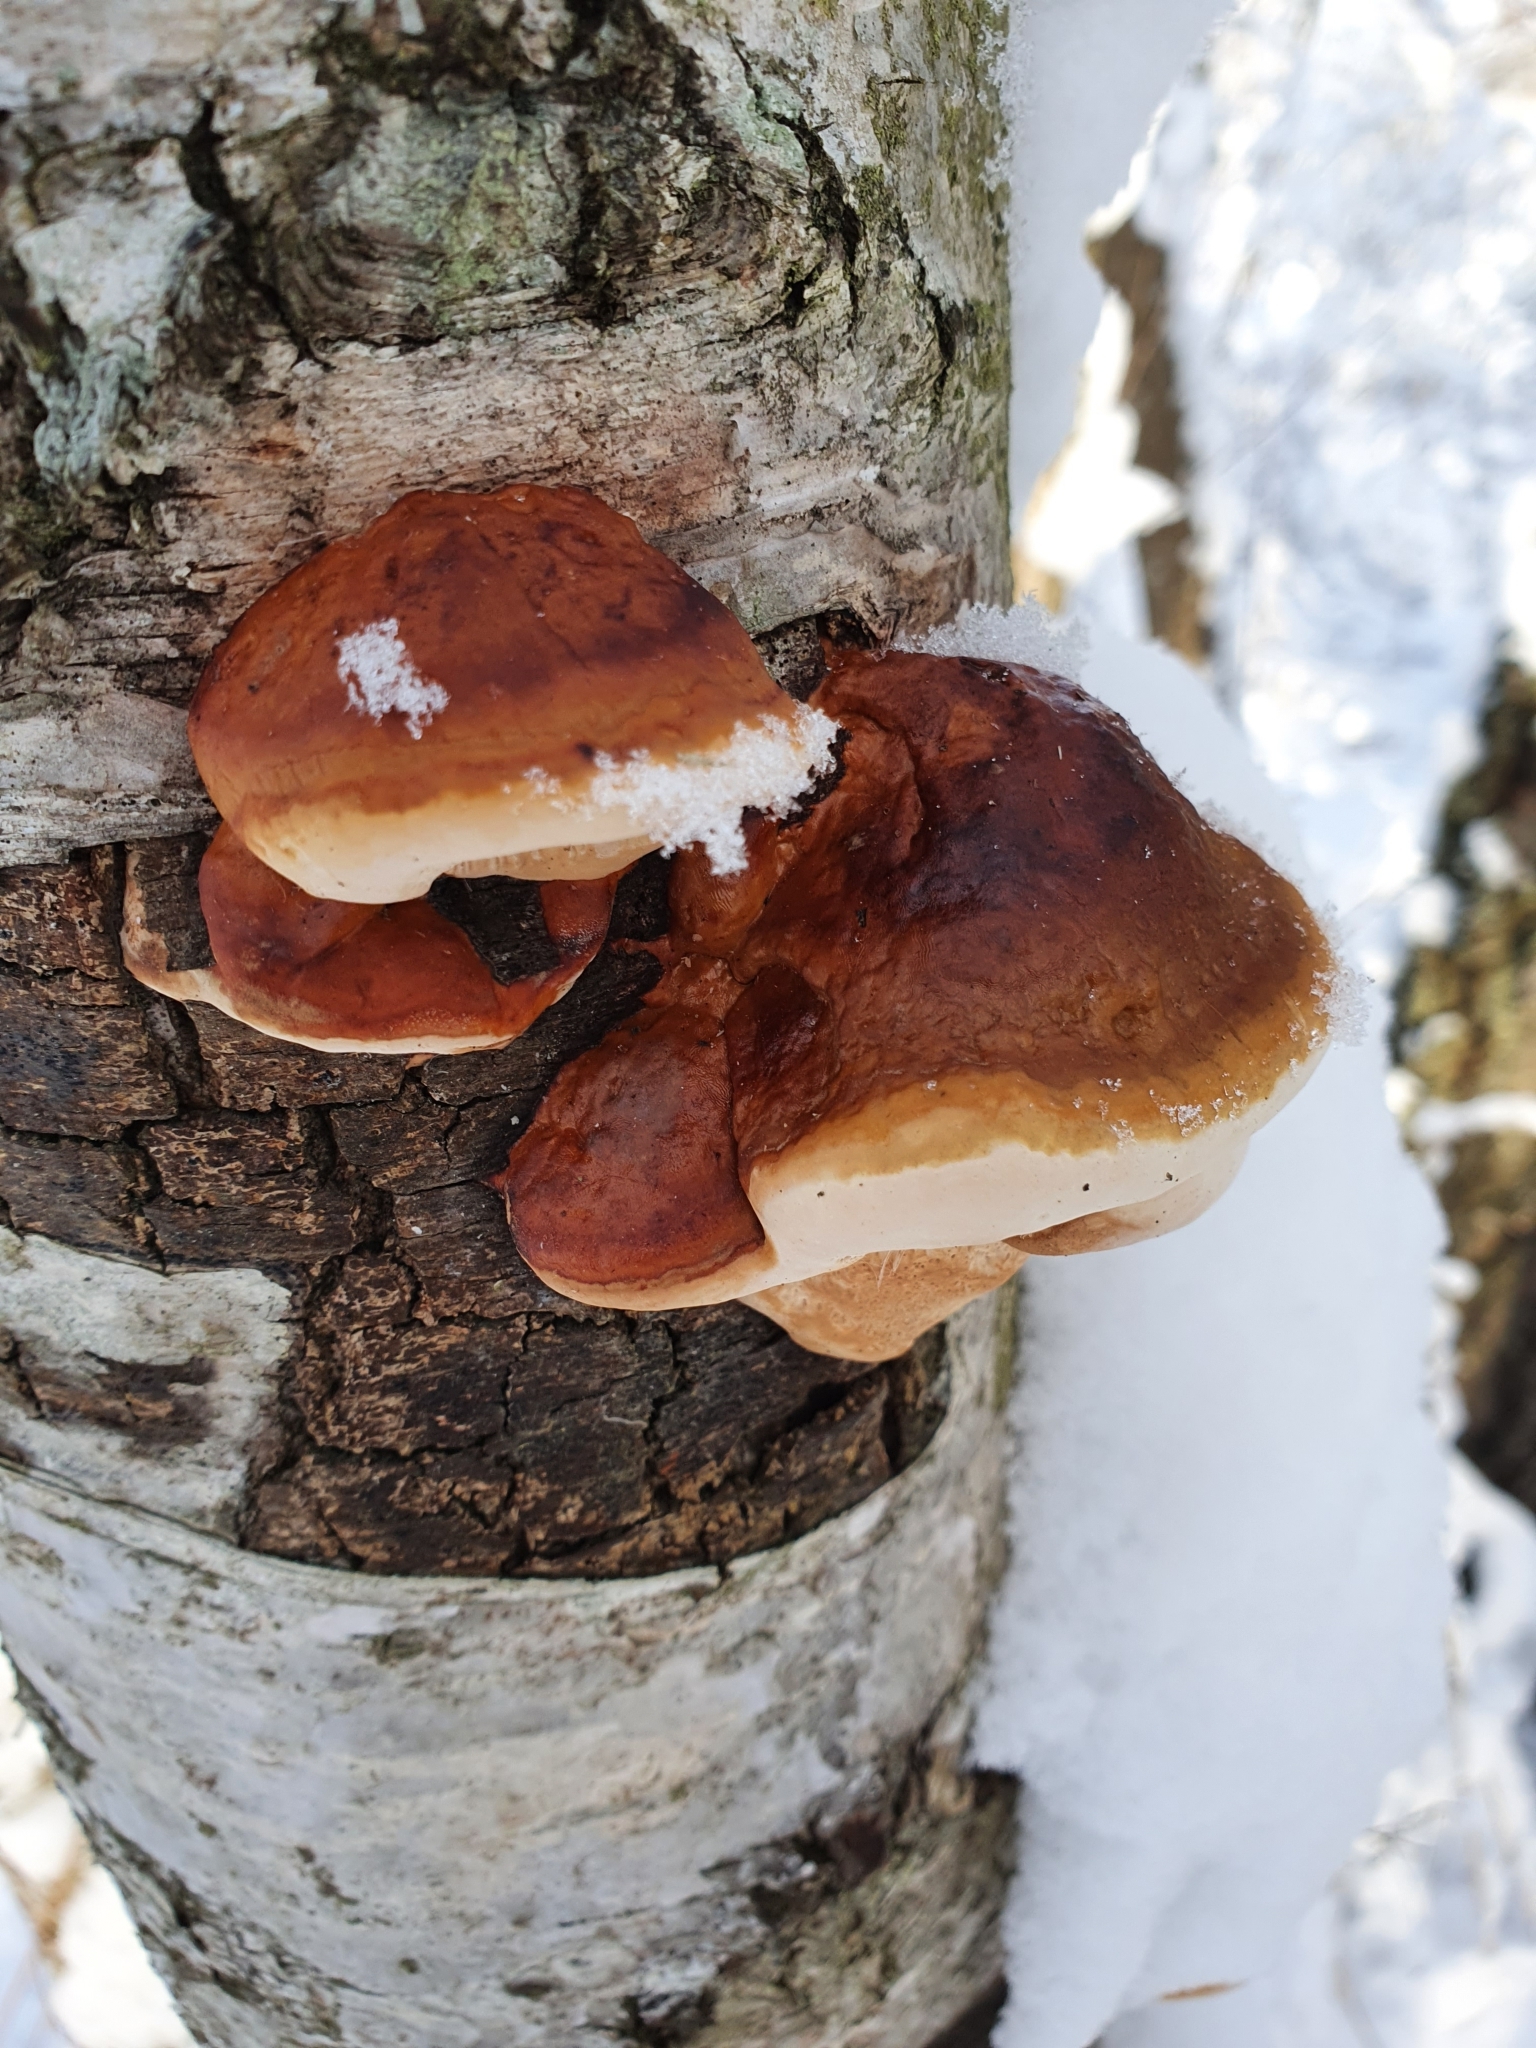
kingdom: Fungi
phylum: Basidiomycota
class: Agaricomycetes
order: Polyporales
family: Fomitopsidaceae
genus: Fomitopsis
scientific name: Fomitopsis pinicola
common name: Red-belted bracket
